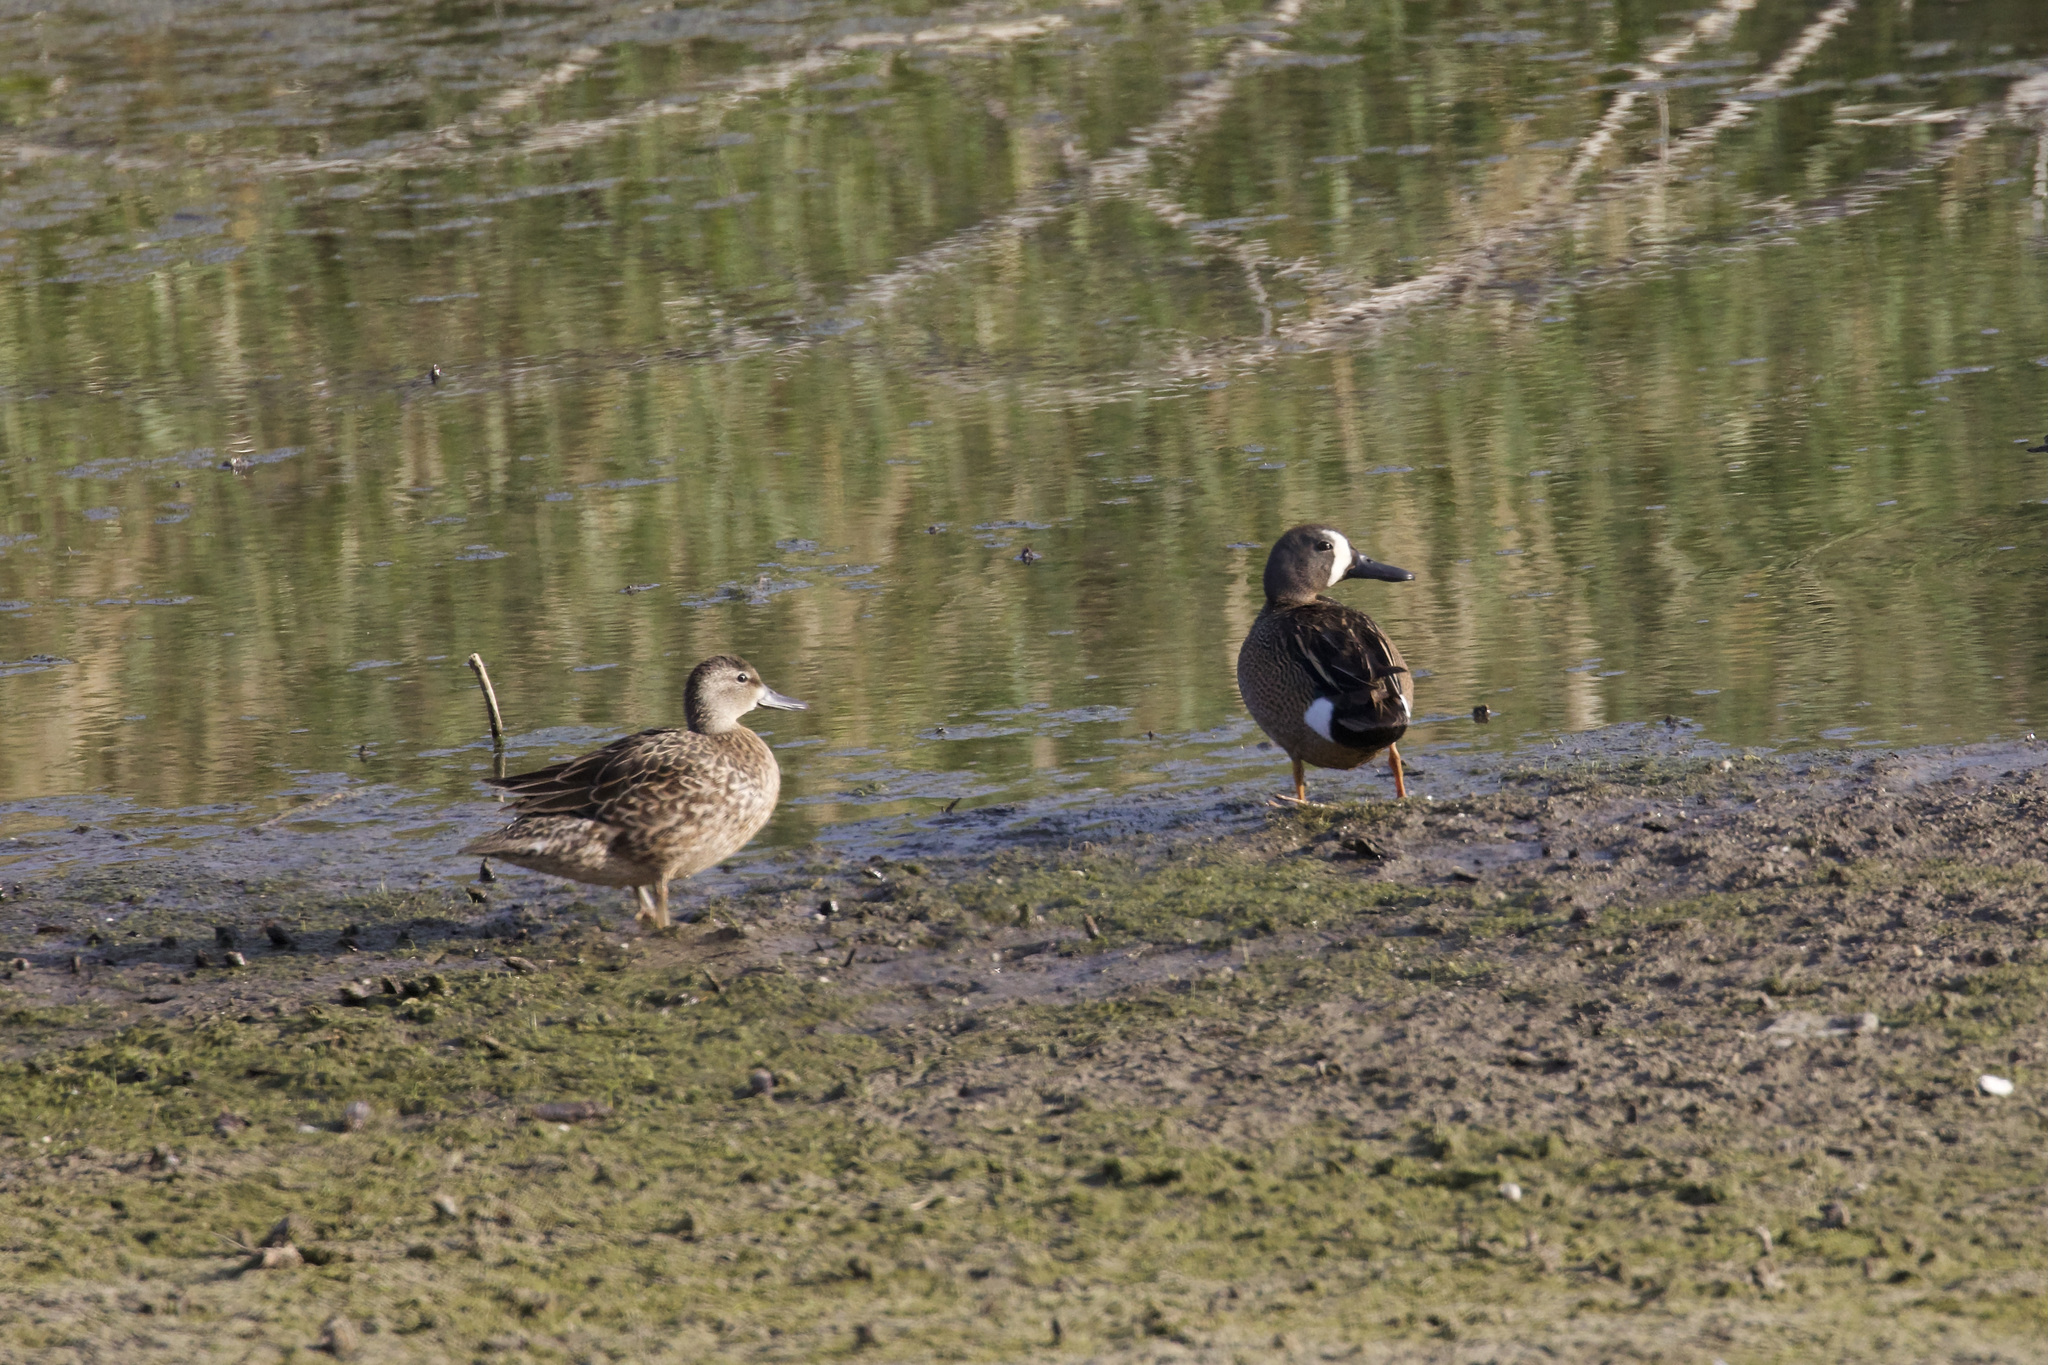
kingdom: Animalia
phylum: Chordata
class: Aves
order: Anseriformes
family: Anatidae
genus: Spatula
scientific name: Spatula discors
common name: Blue-winged teal
